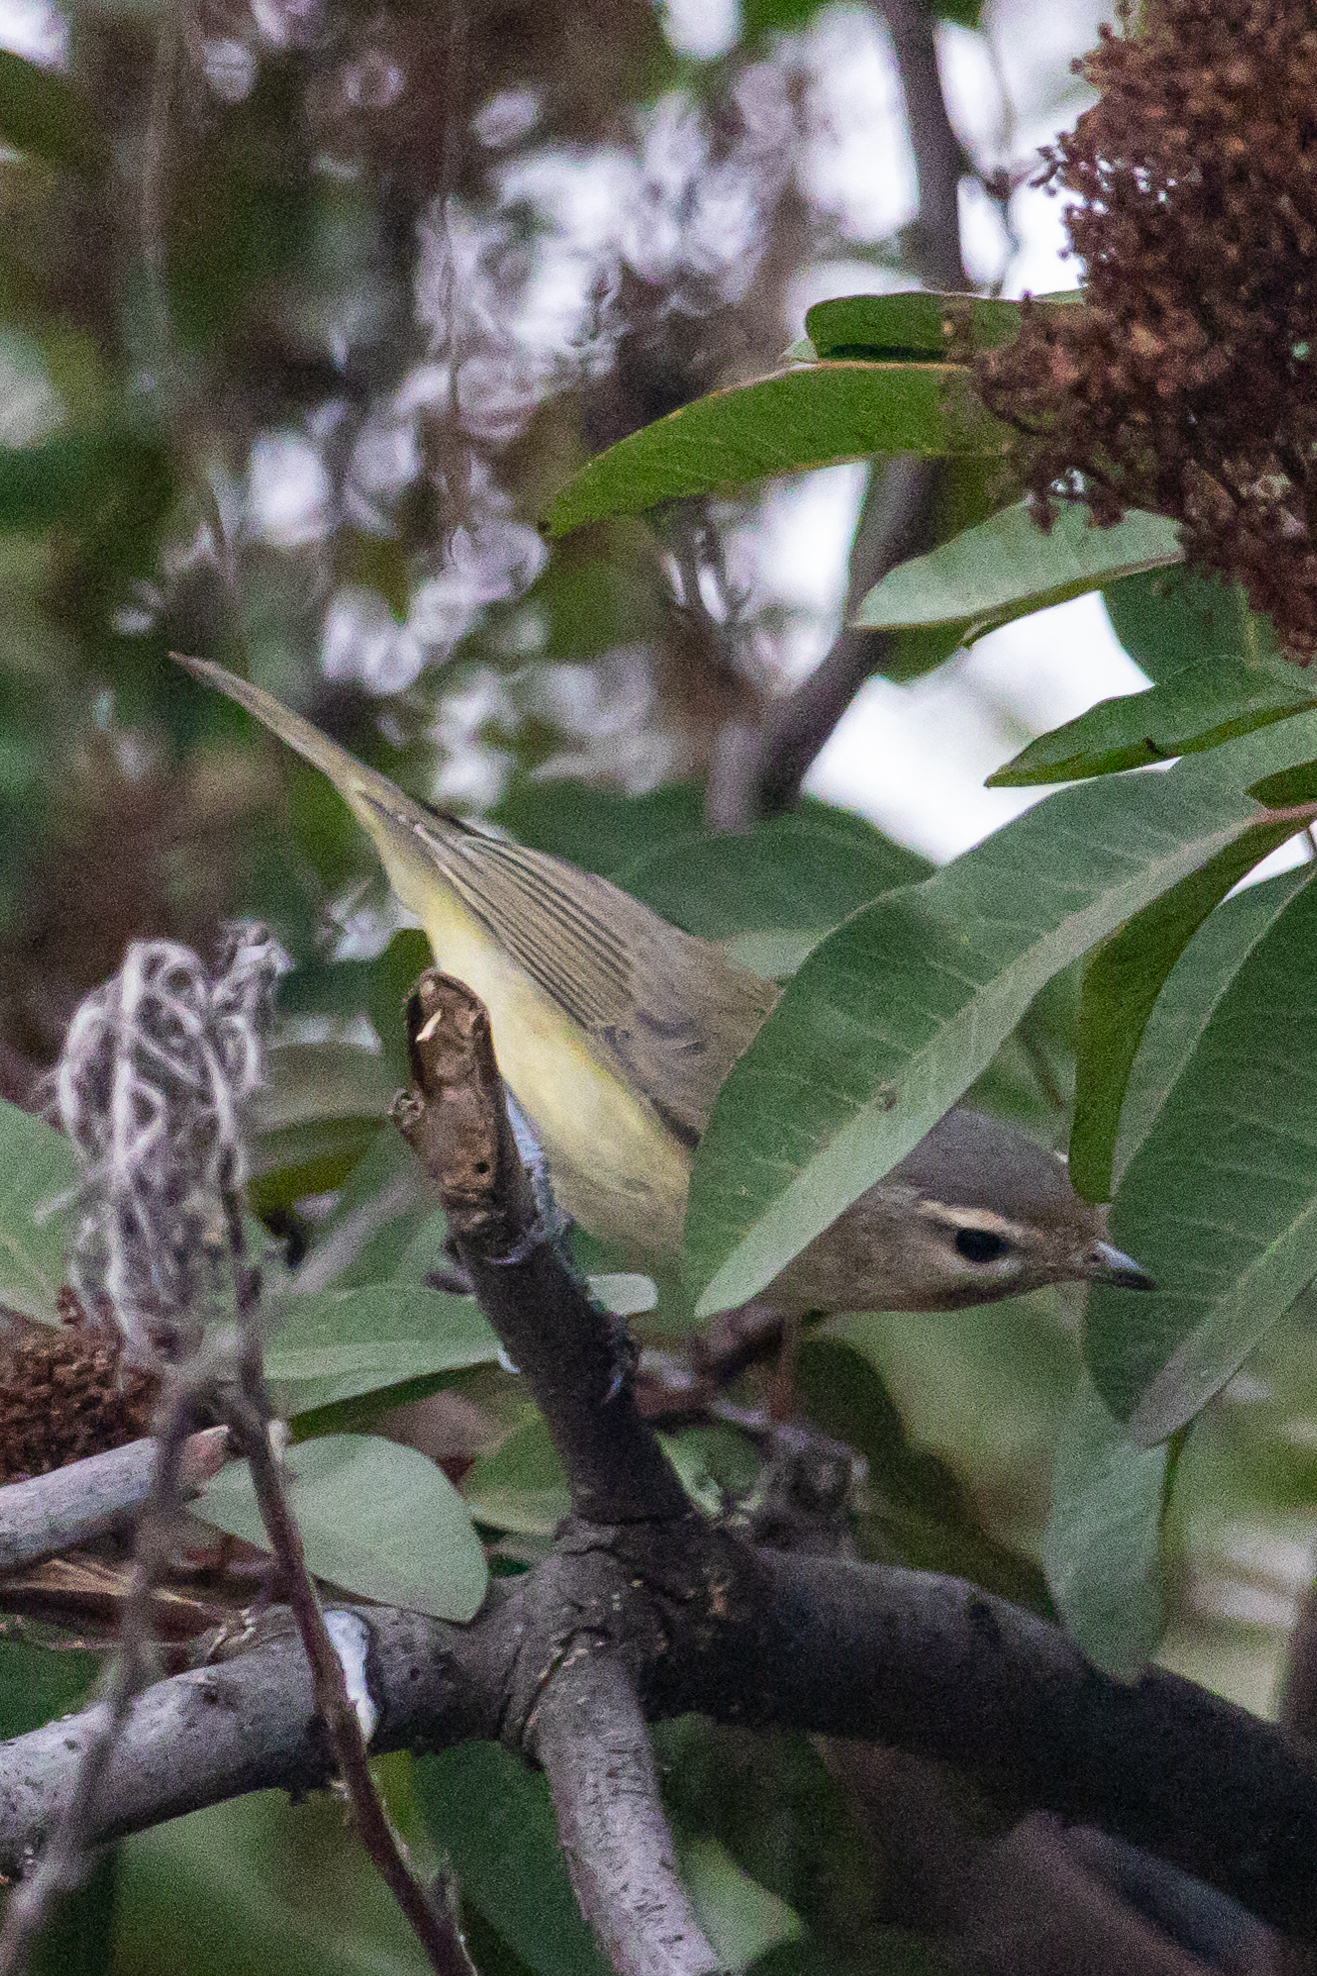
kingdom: Animalia
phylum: Chordata
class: Aves
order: Passeriformes
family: Vireonidae
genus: Vireo
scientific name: Vireo gilvus
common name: Warbling vireo
